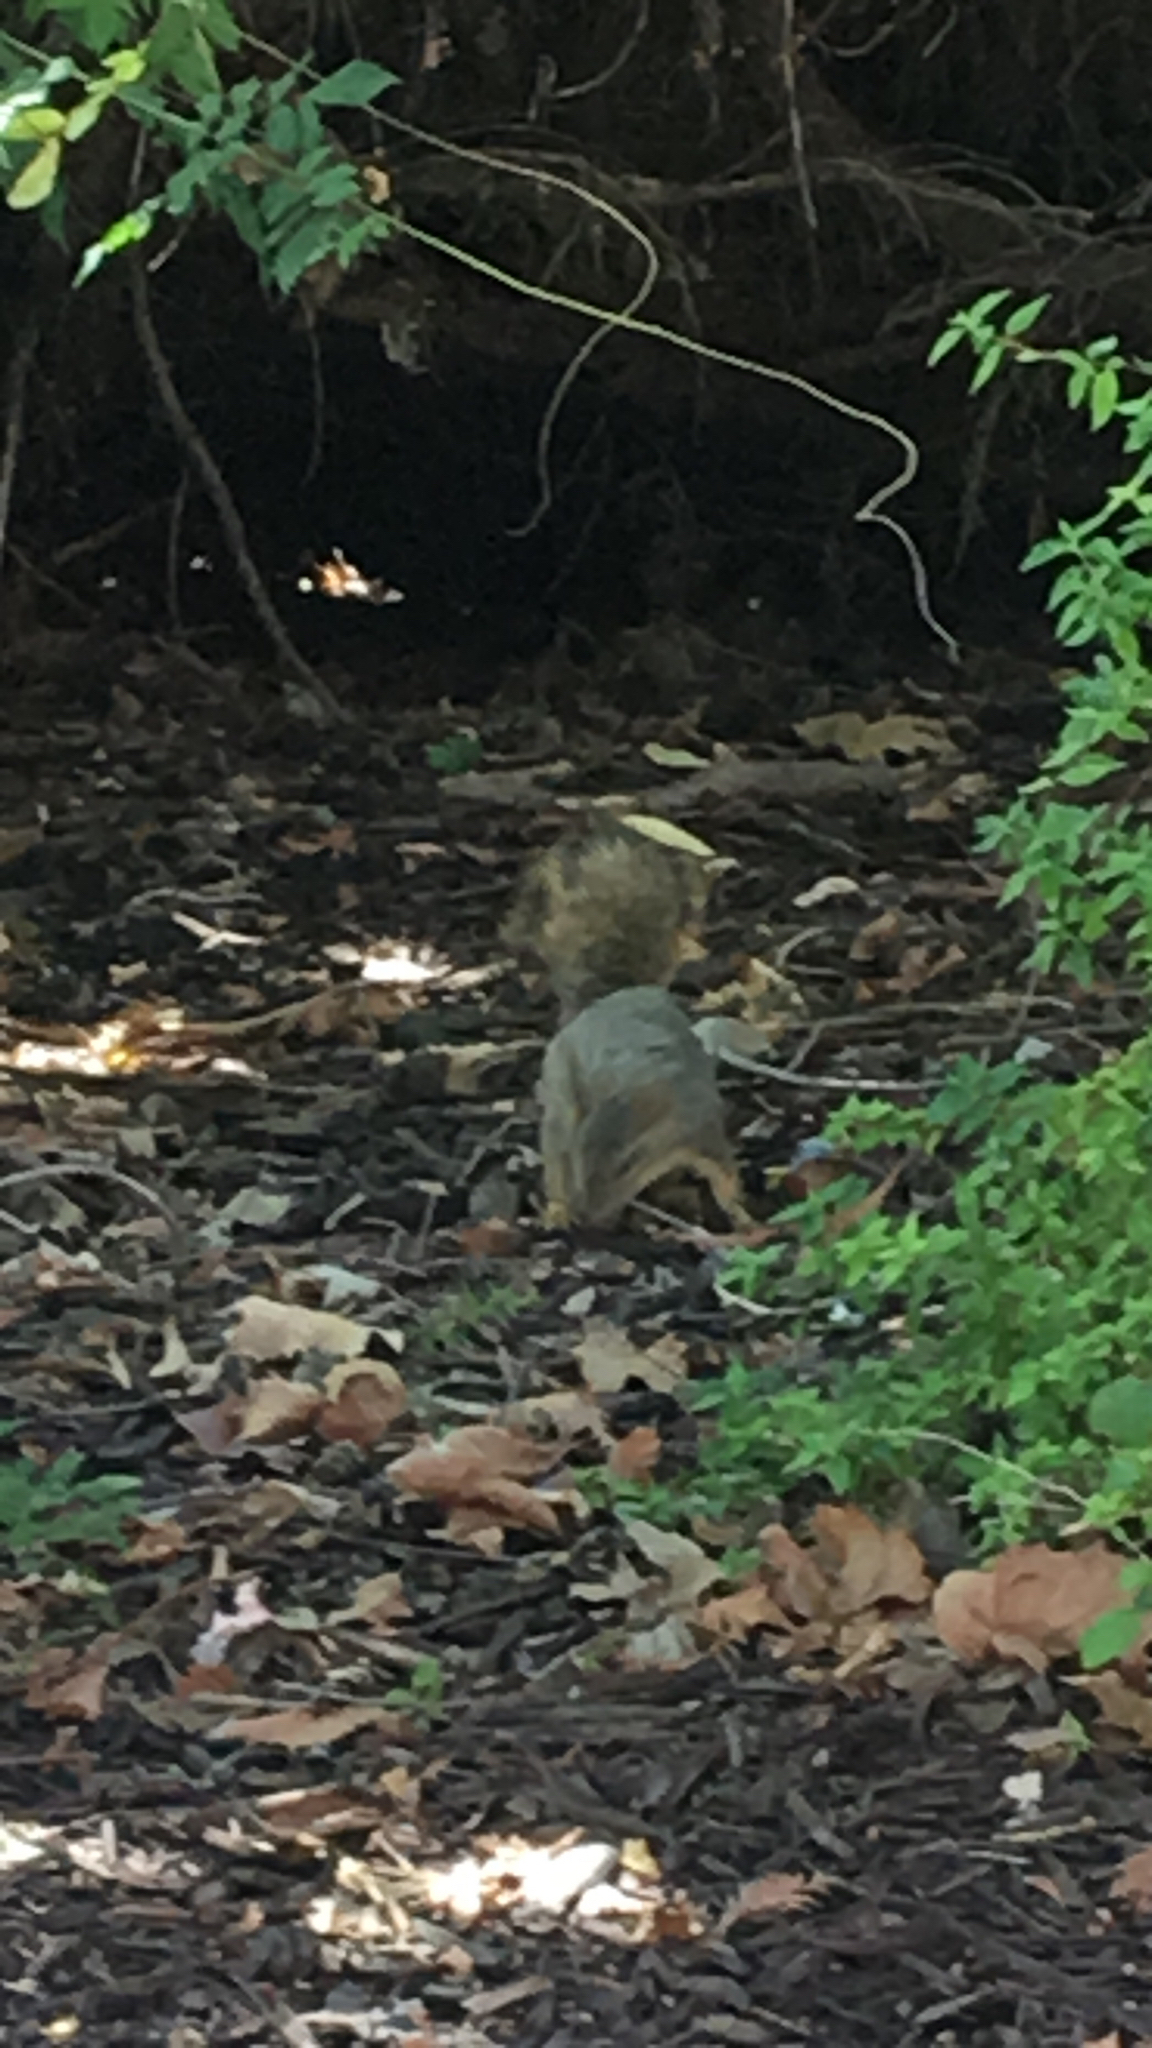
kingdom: Animalia
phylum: Chordata
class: Mammalia
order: Rodentia
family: Sciuridae
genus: Sciurus
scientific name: Sciurus niger
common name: Fox squirrel
